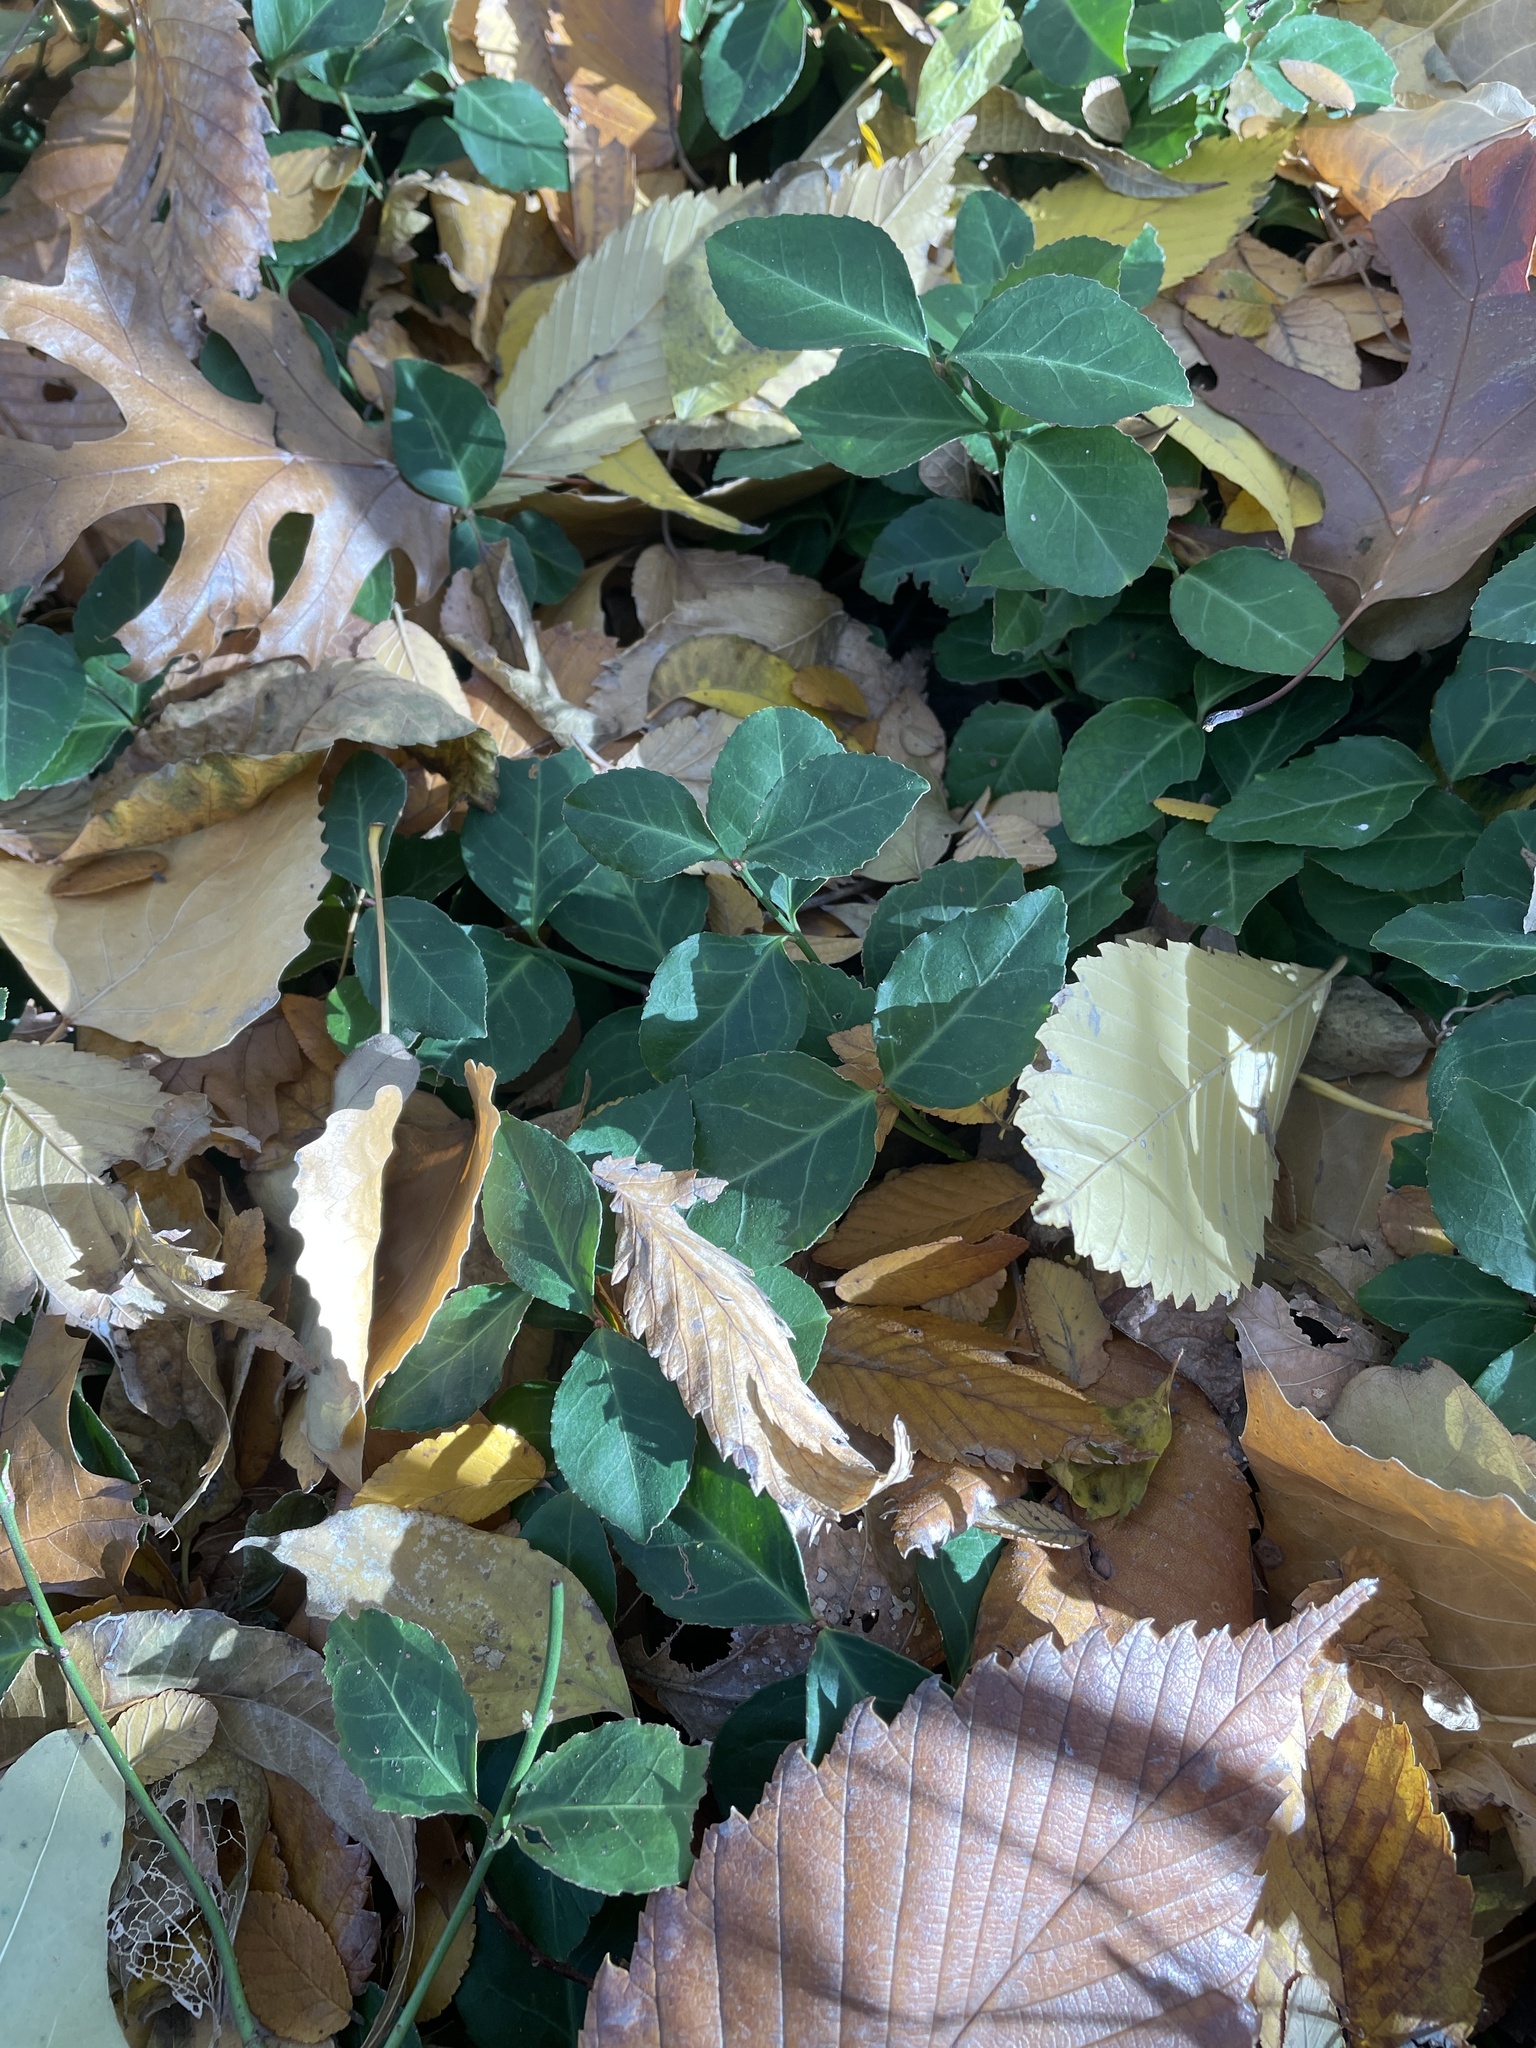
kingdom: Plantae
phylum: Tracheophyta
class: Magnoliopsida
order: Celastrales
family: Celastraceae
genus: Euonymus
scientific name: Euonymus fortunei
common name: Climbing euonymus
